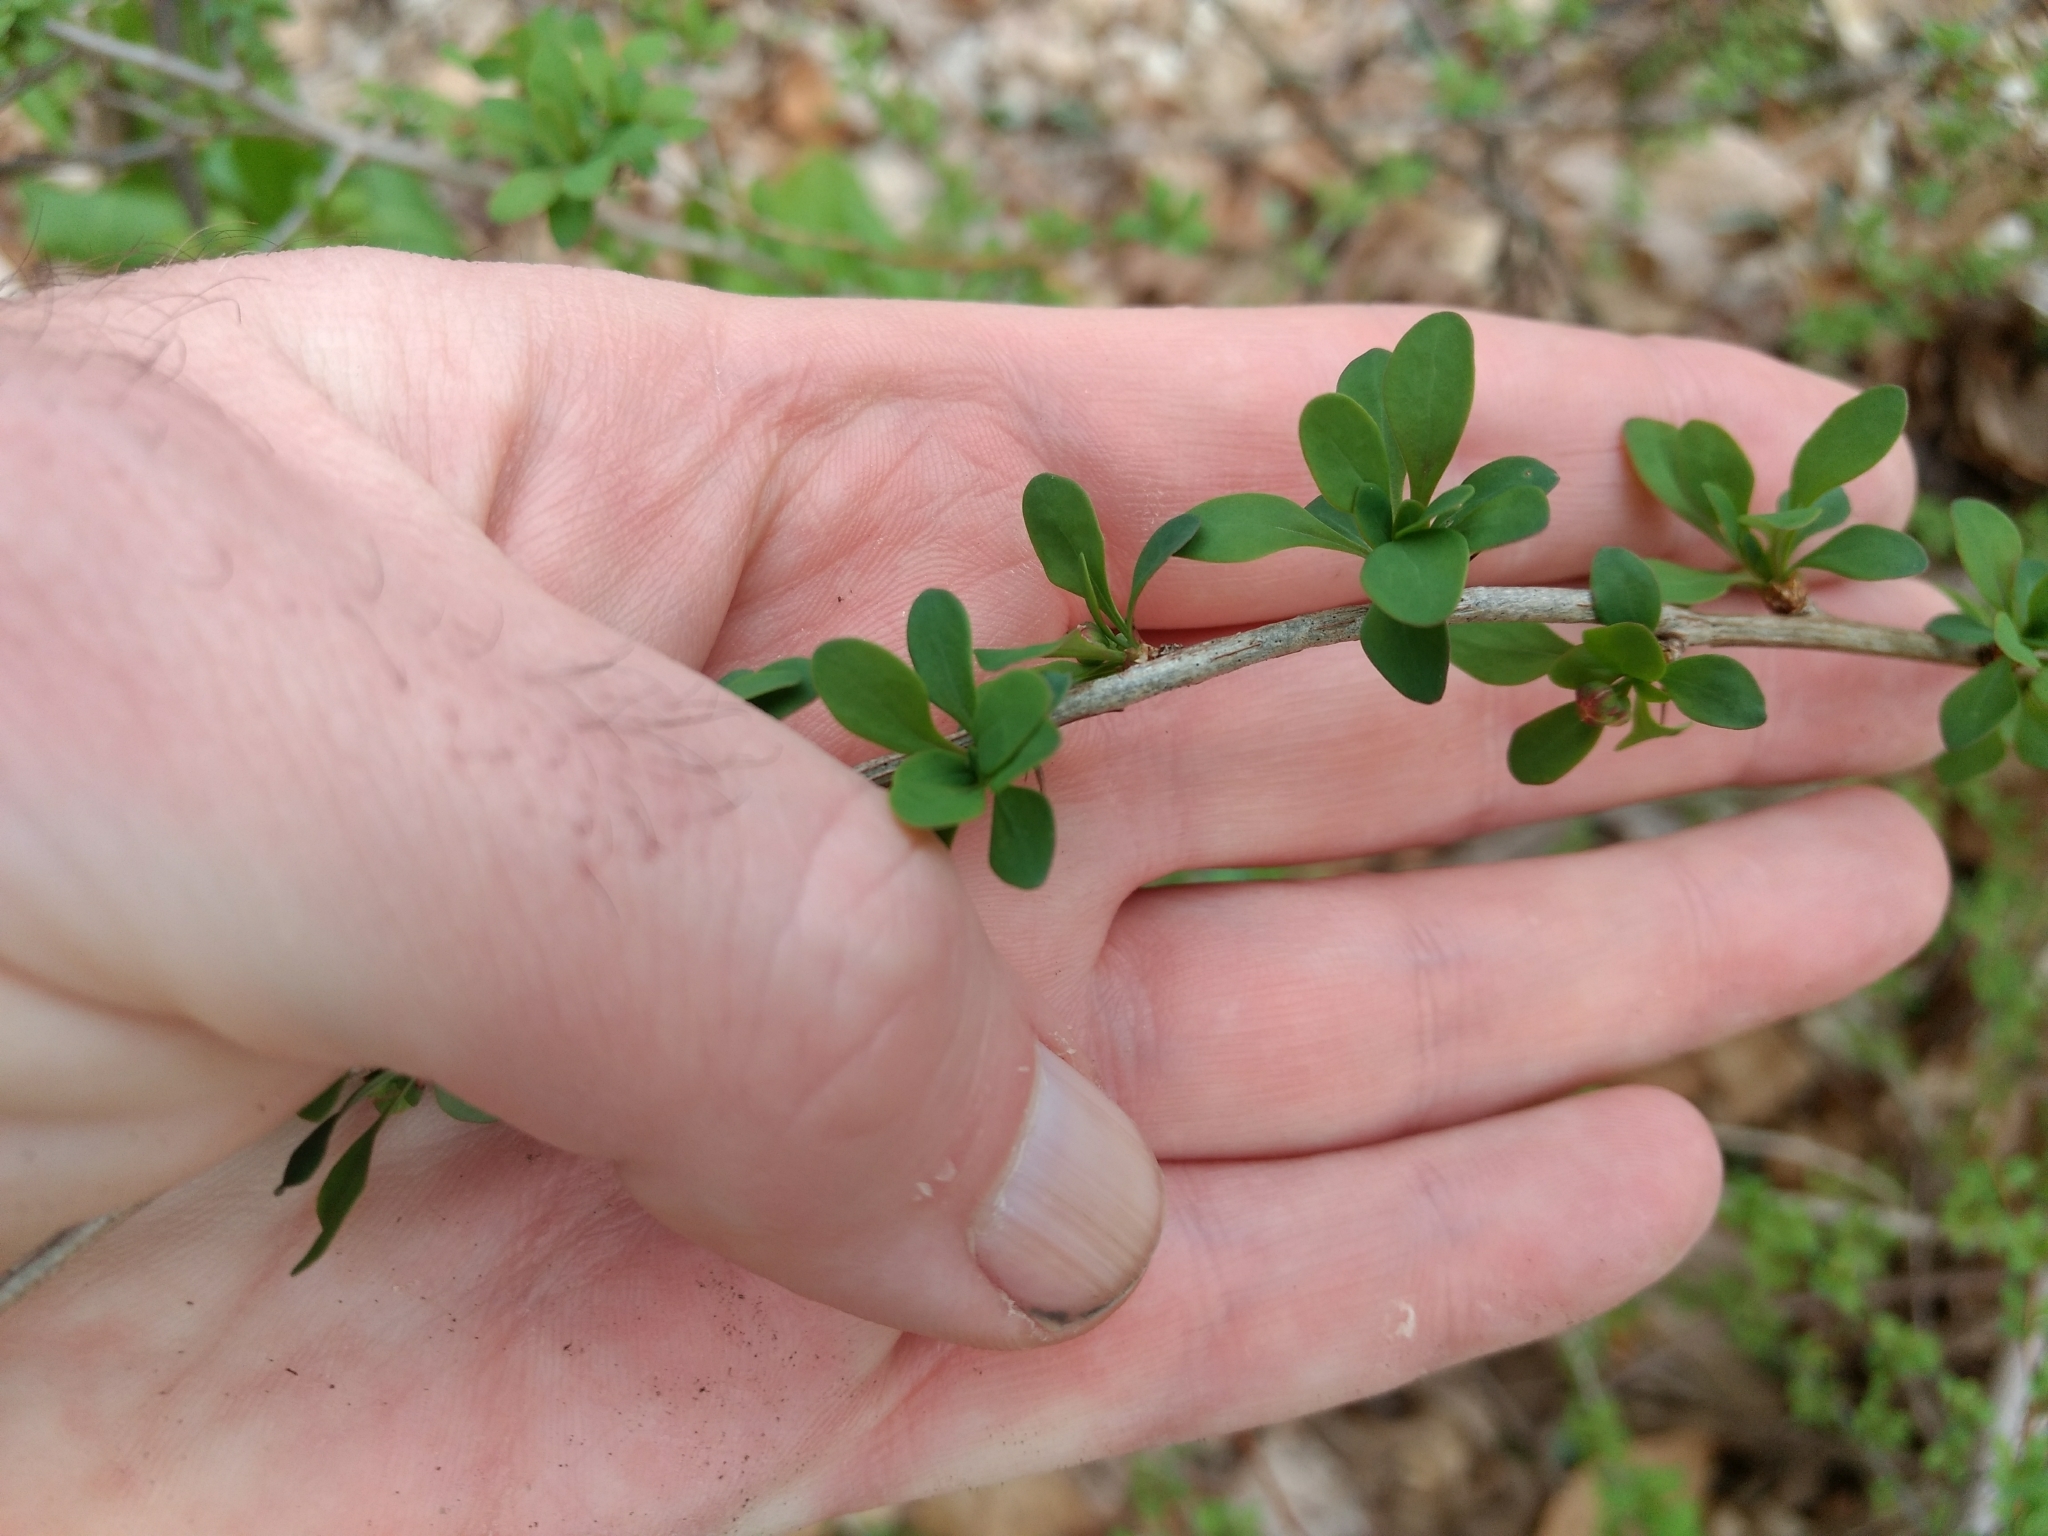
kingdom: Plantae
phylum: Tracheophyta
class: Magnoliopsida
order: Ranunculales
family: Berberidaceae
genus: Berberis
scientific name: Berberis thunbergii
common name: Japanese barberry
